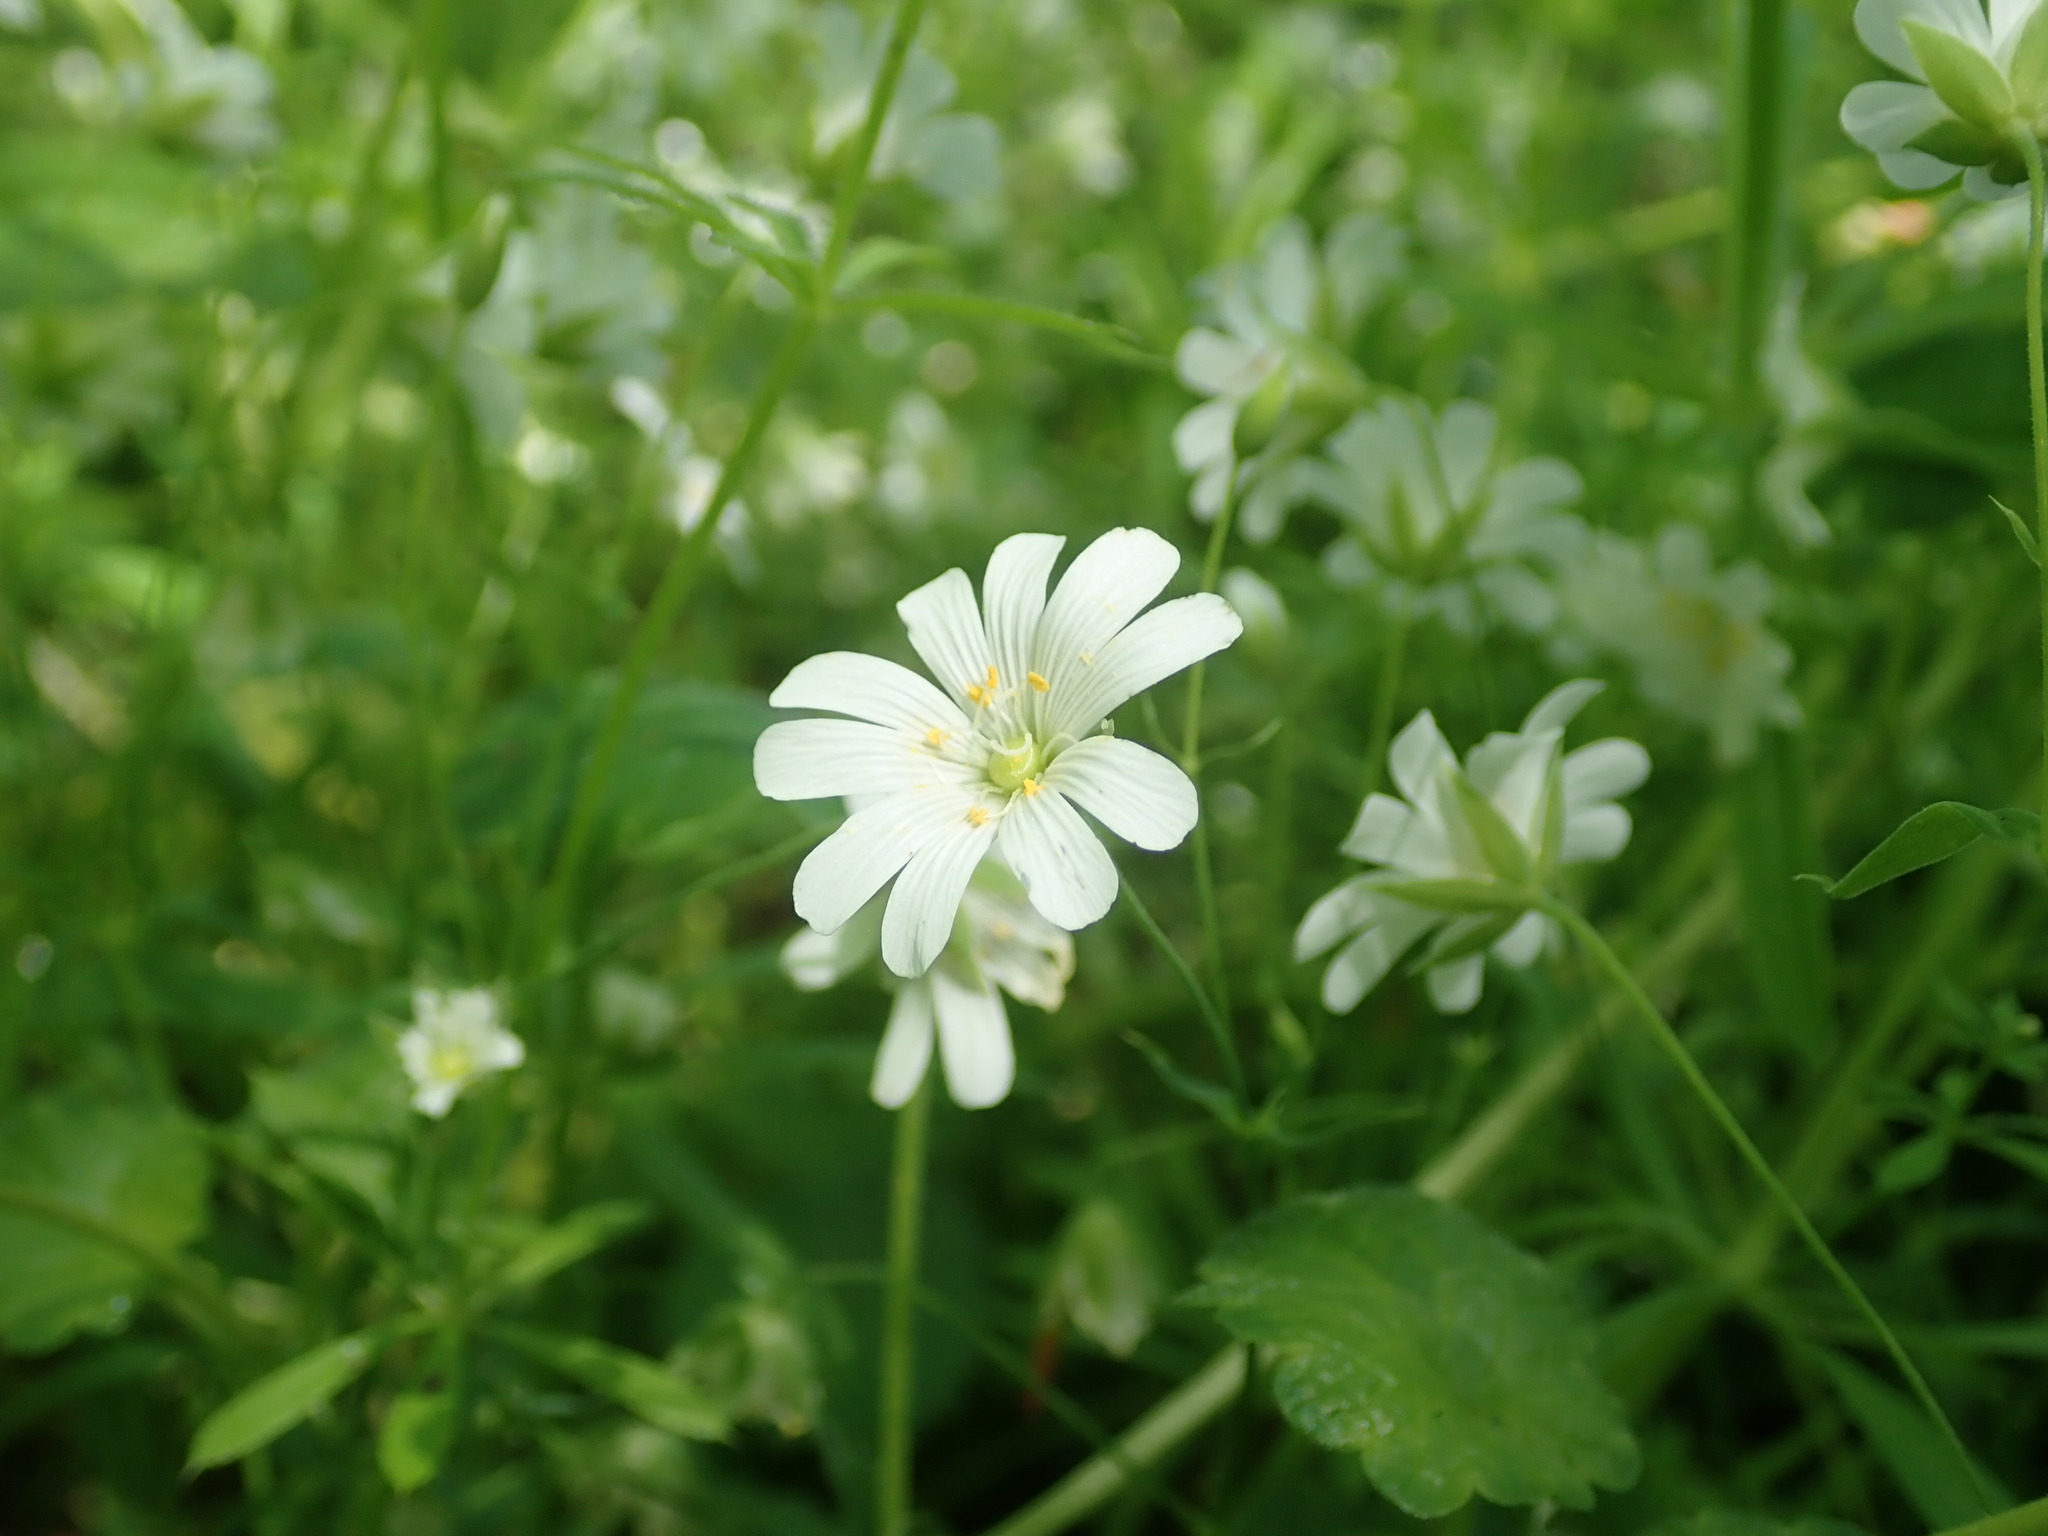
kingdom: Plantae
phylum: Tracheophyta
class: Magnoliopsida
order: Caryophyllales
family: Caryophyllaceae
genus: Rabelera
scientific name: Rabelera holostea
